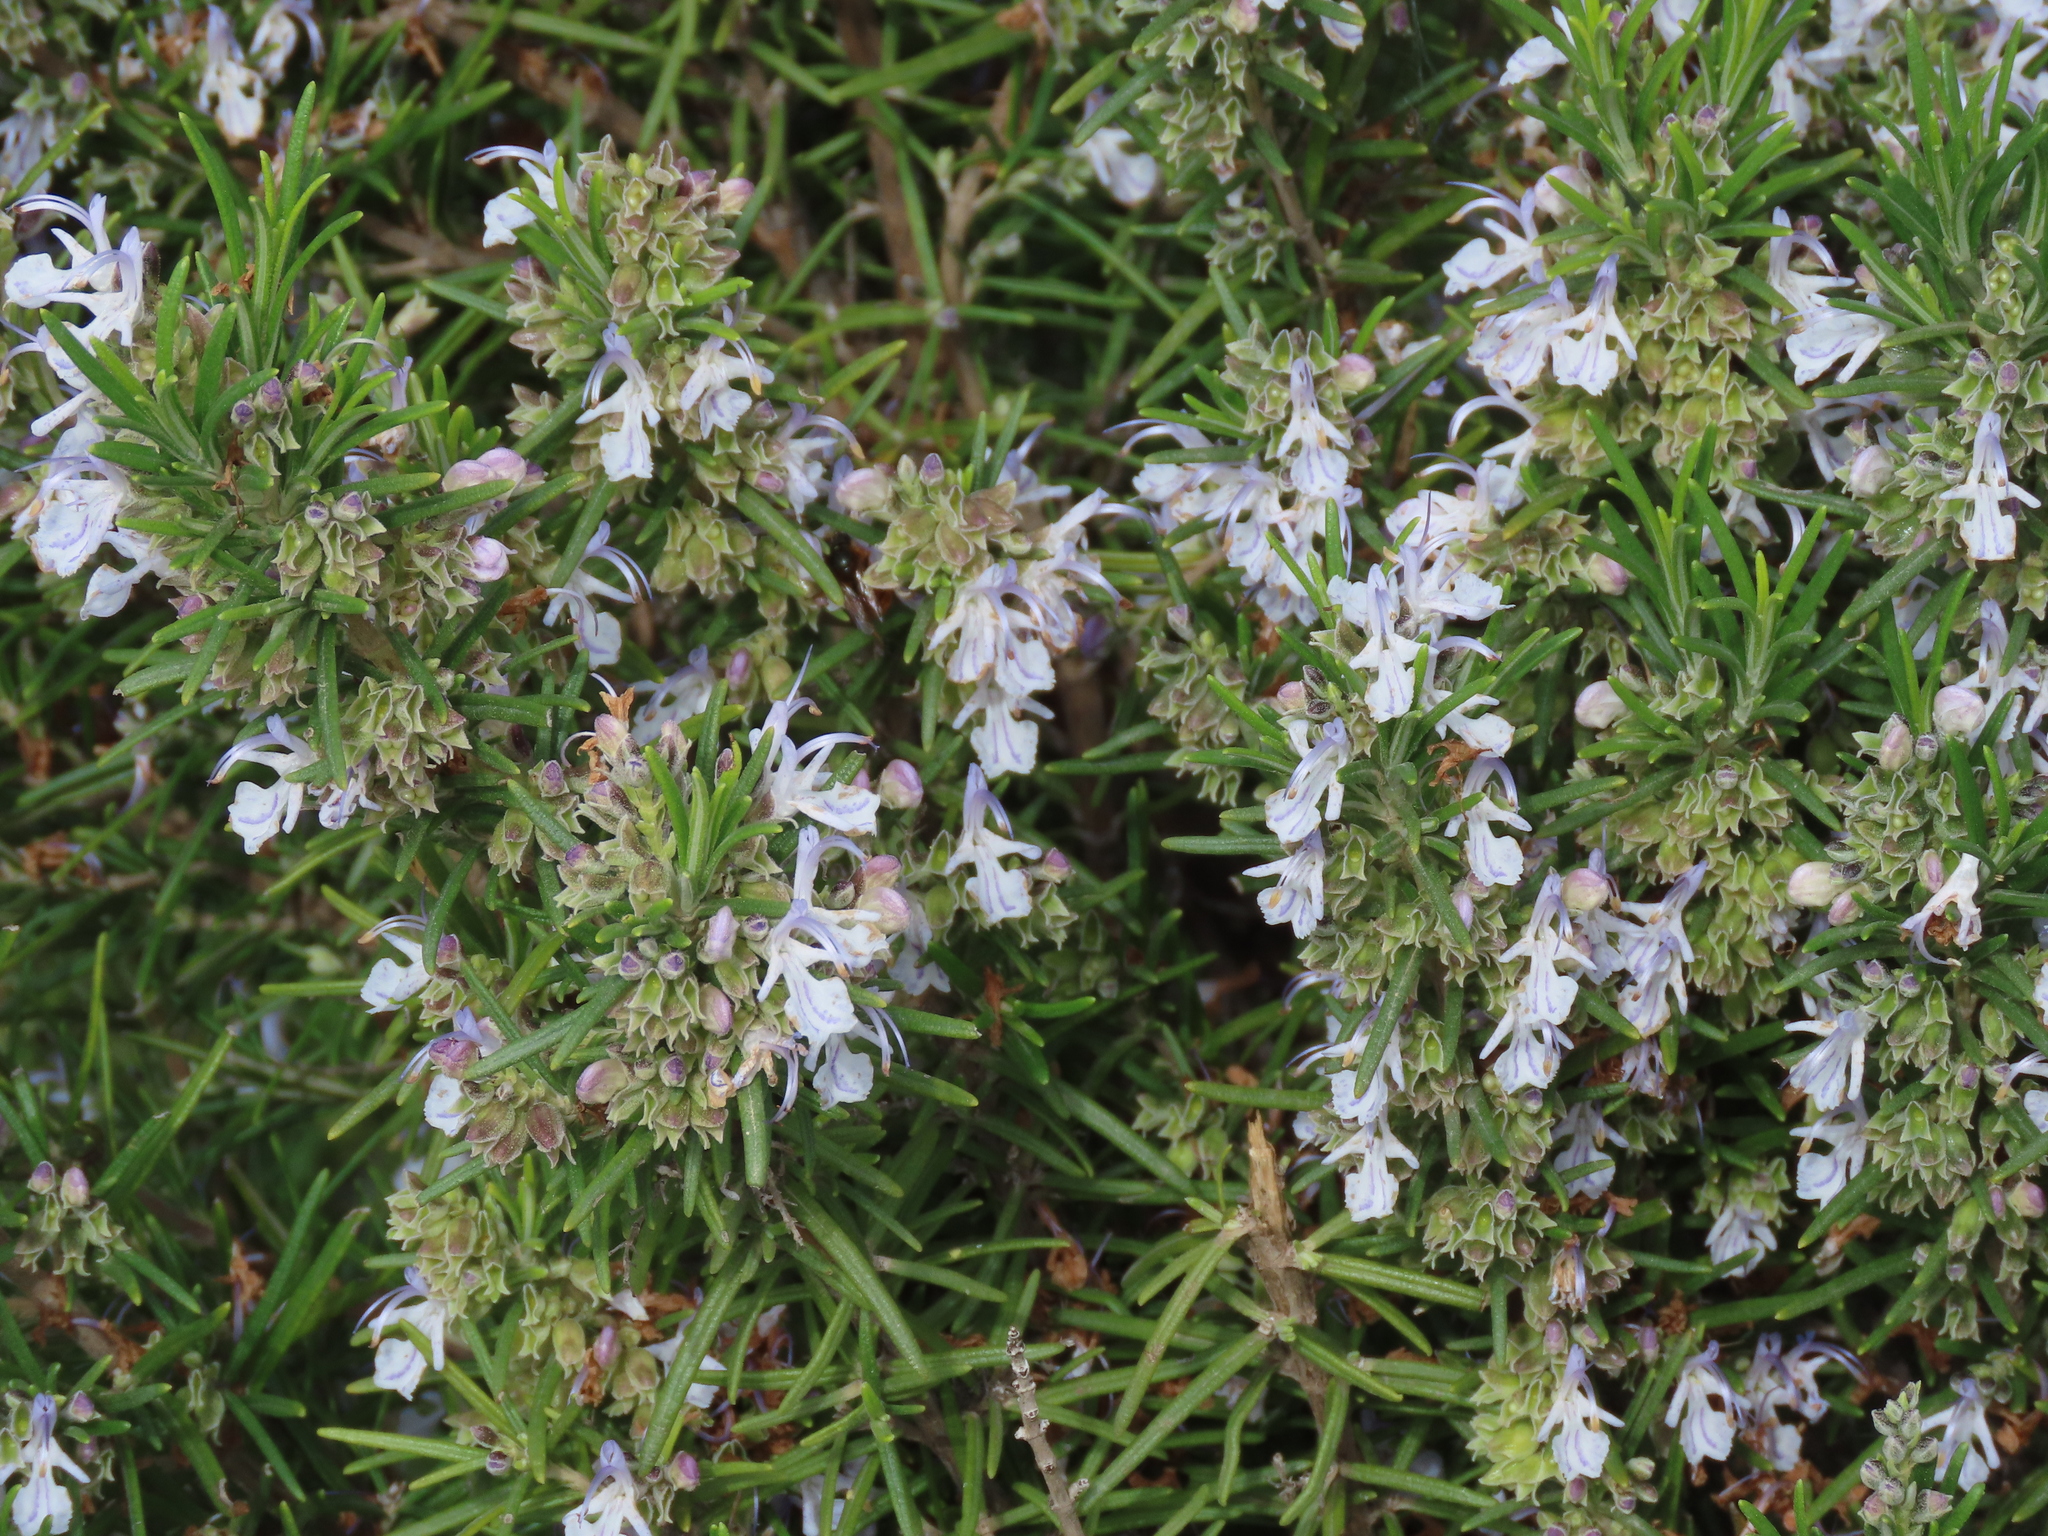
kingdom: Plantae
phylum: Tracheophyta
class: Magnoliopsida
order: Lamiales
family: Lamiaceae
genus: Salvia
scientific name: Salvia rosmarinus
